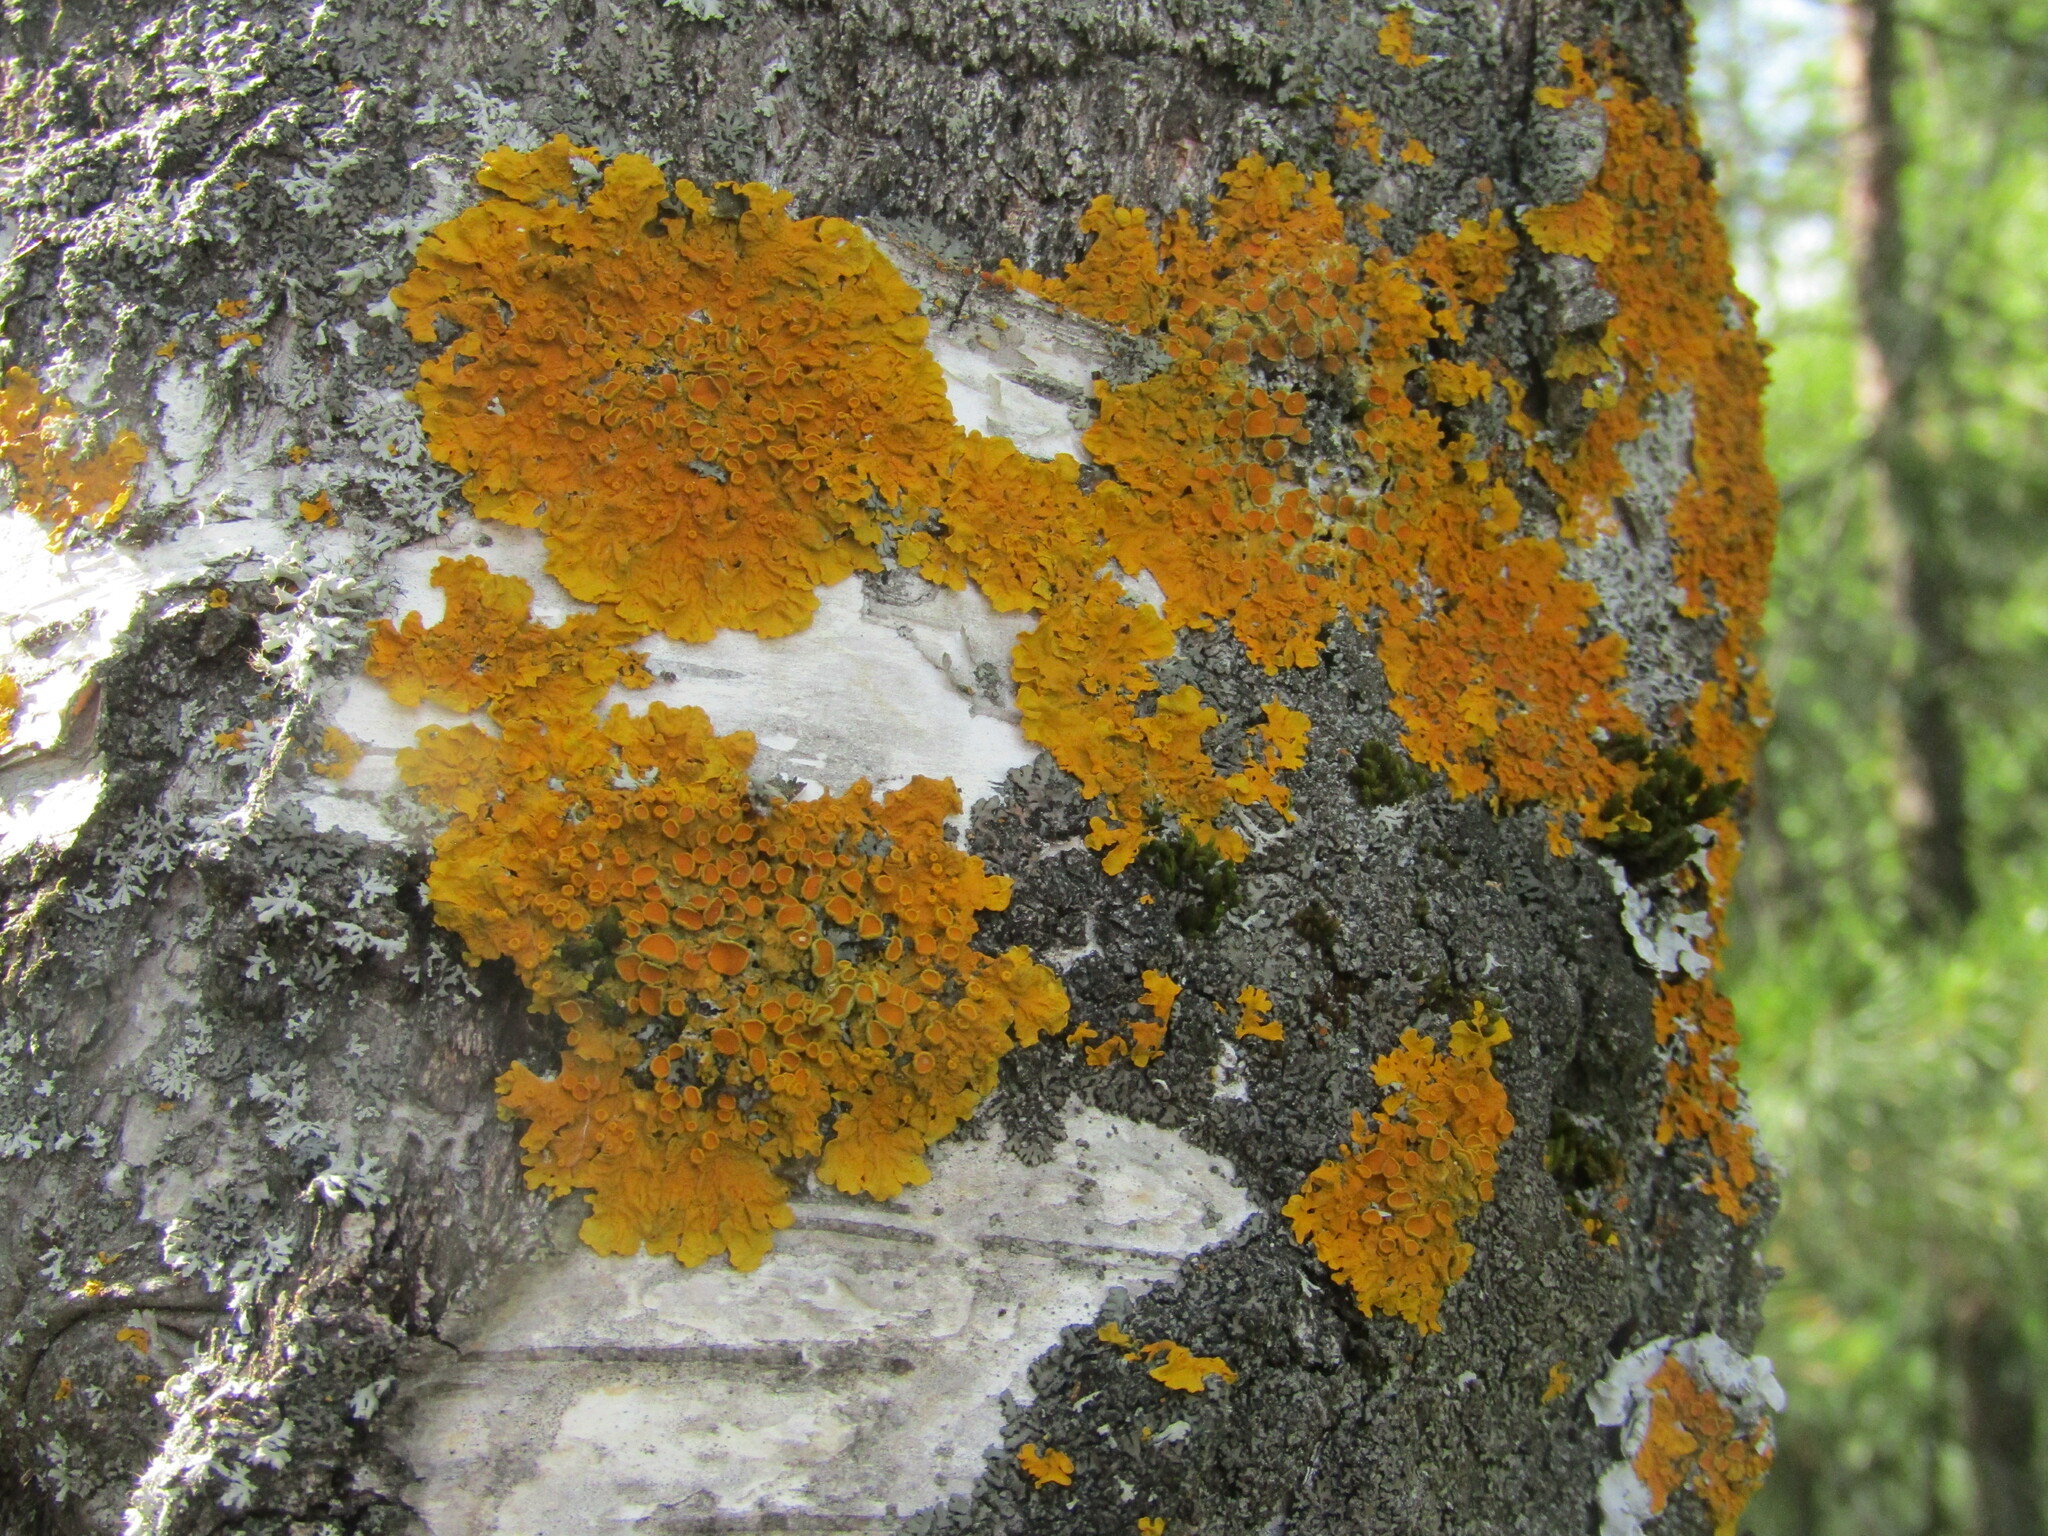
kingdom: Fungi
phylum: Ascomycota
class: Lecanoromycetes
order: Teloschistales
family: Teloschistaceae
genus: Xanthoria
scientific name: Xanthoria parietina
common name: Common orange lichen
